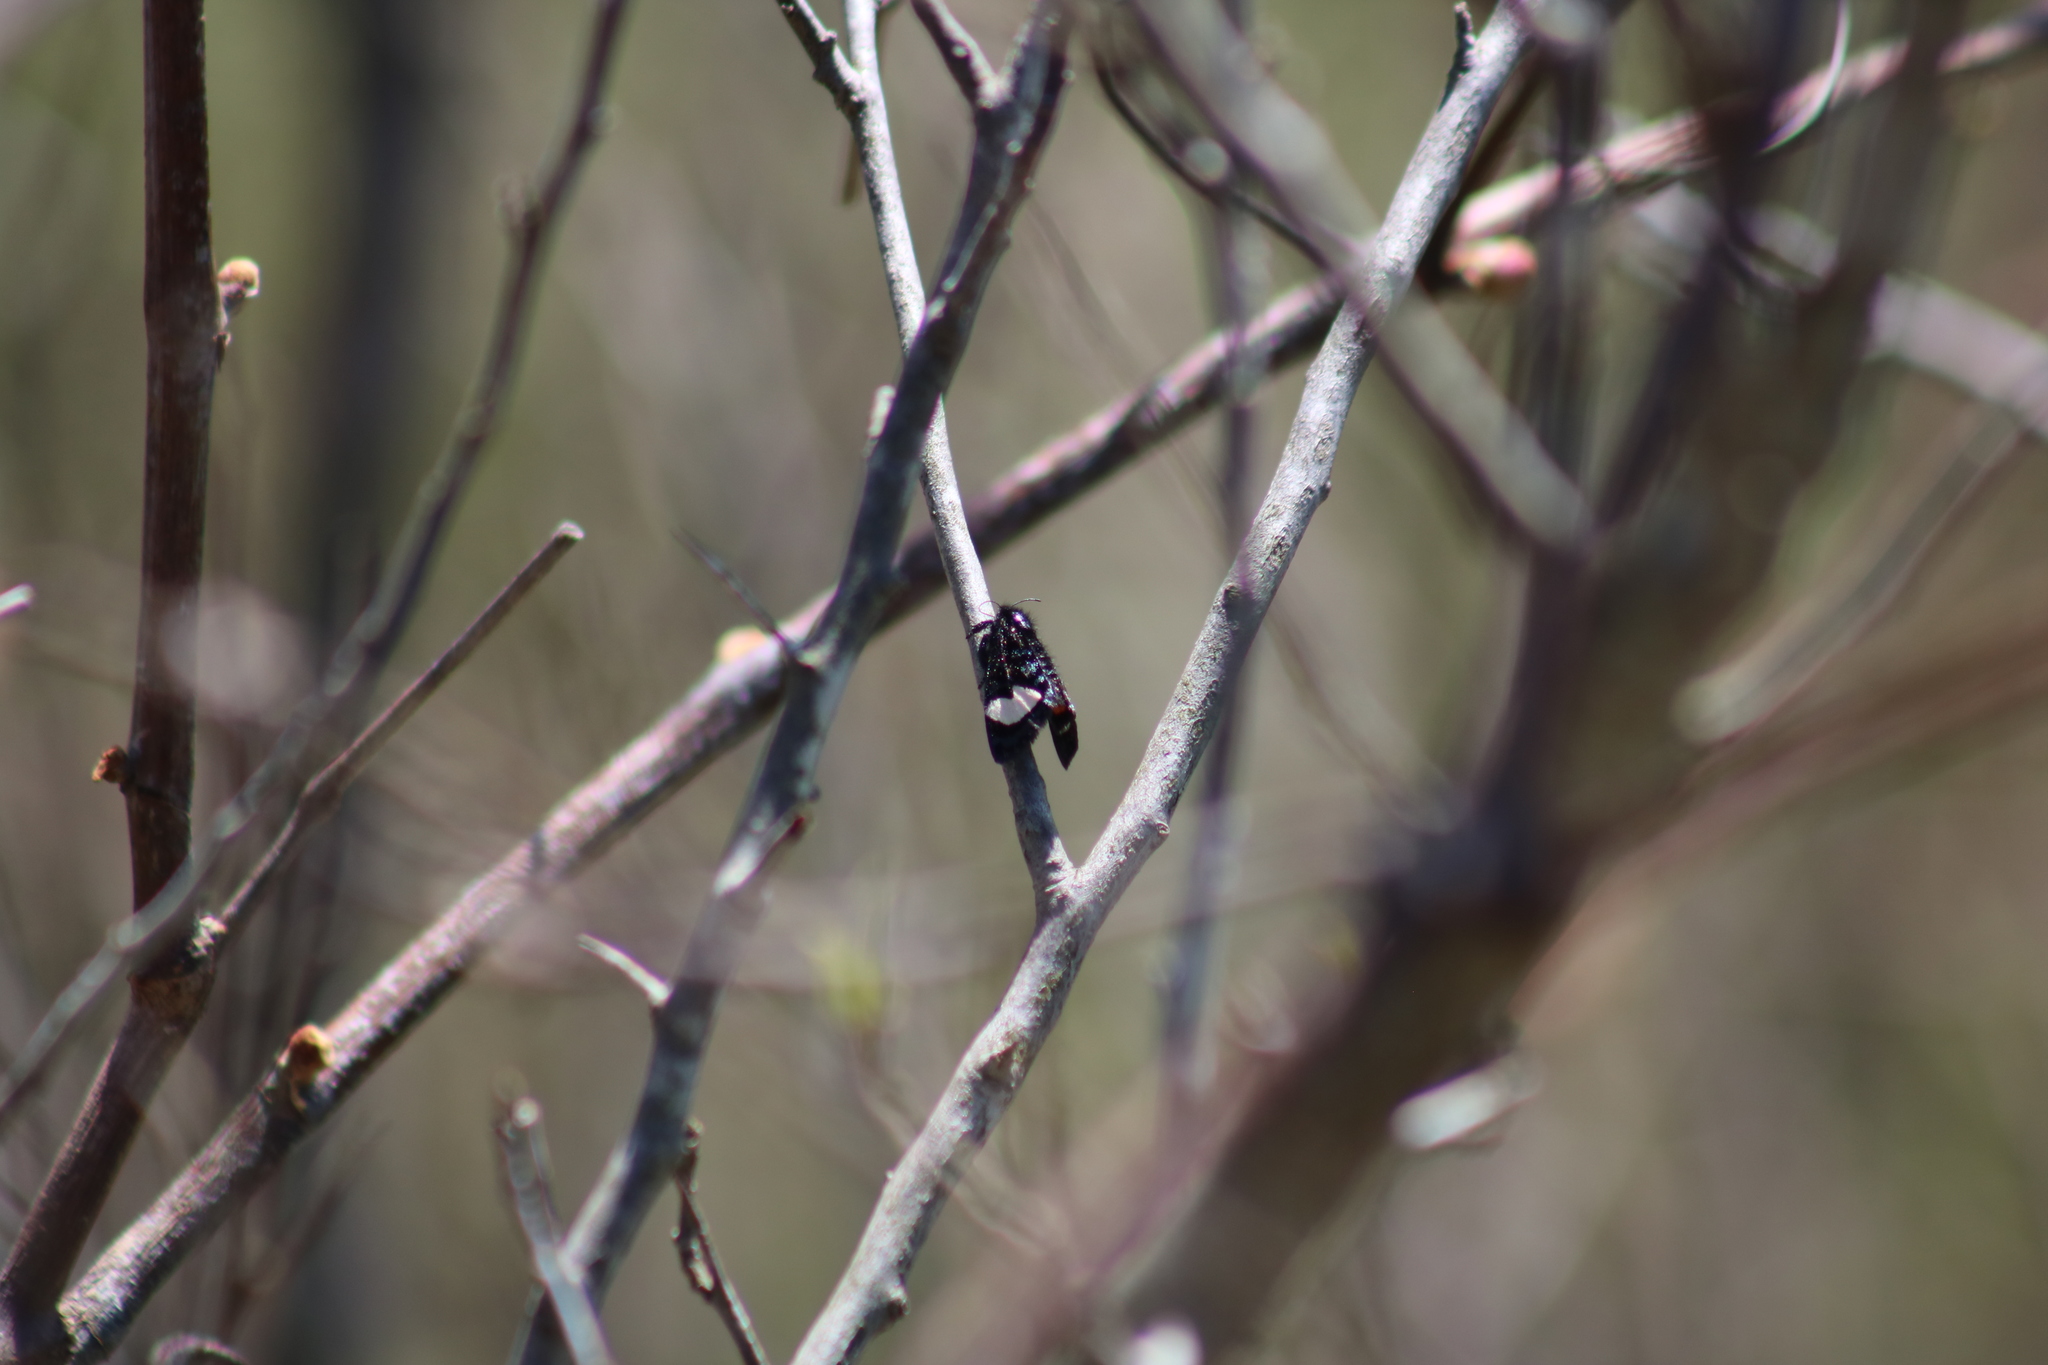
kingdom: Animalia
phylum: Arthropoda
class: Insecta
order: Lepidoptera
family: Noctuidae
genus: Psychomorpha
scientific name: Psychomorpha epimenis
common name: Grapevine epimenis moth
